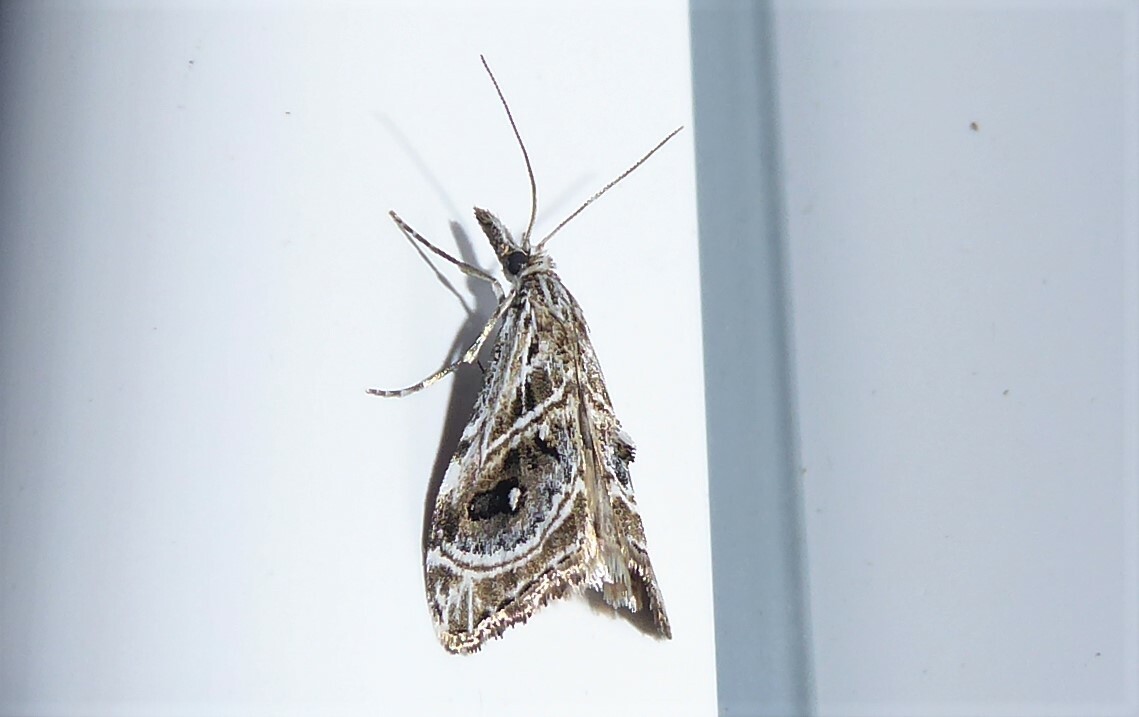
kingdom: Animalia
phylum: Arthropoda
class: Insecta
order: Lepidoptera
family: Crambidae
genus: Gadira
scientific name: Gadira acerella
